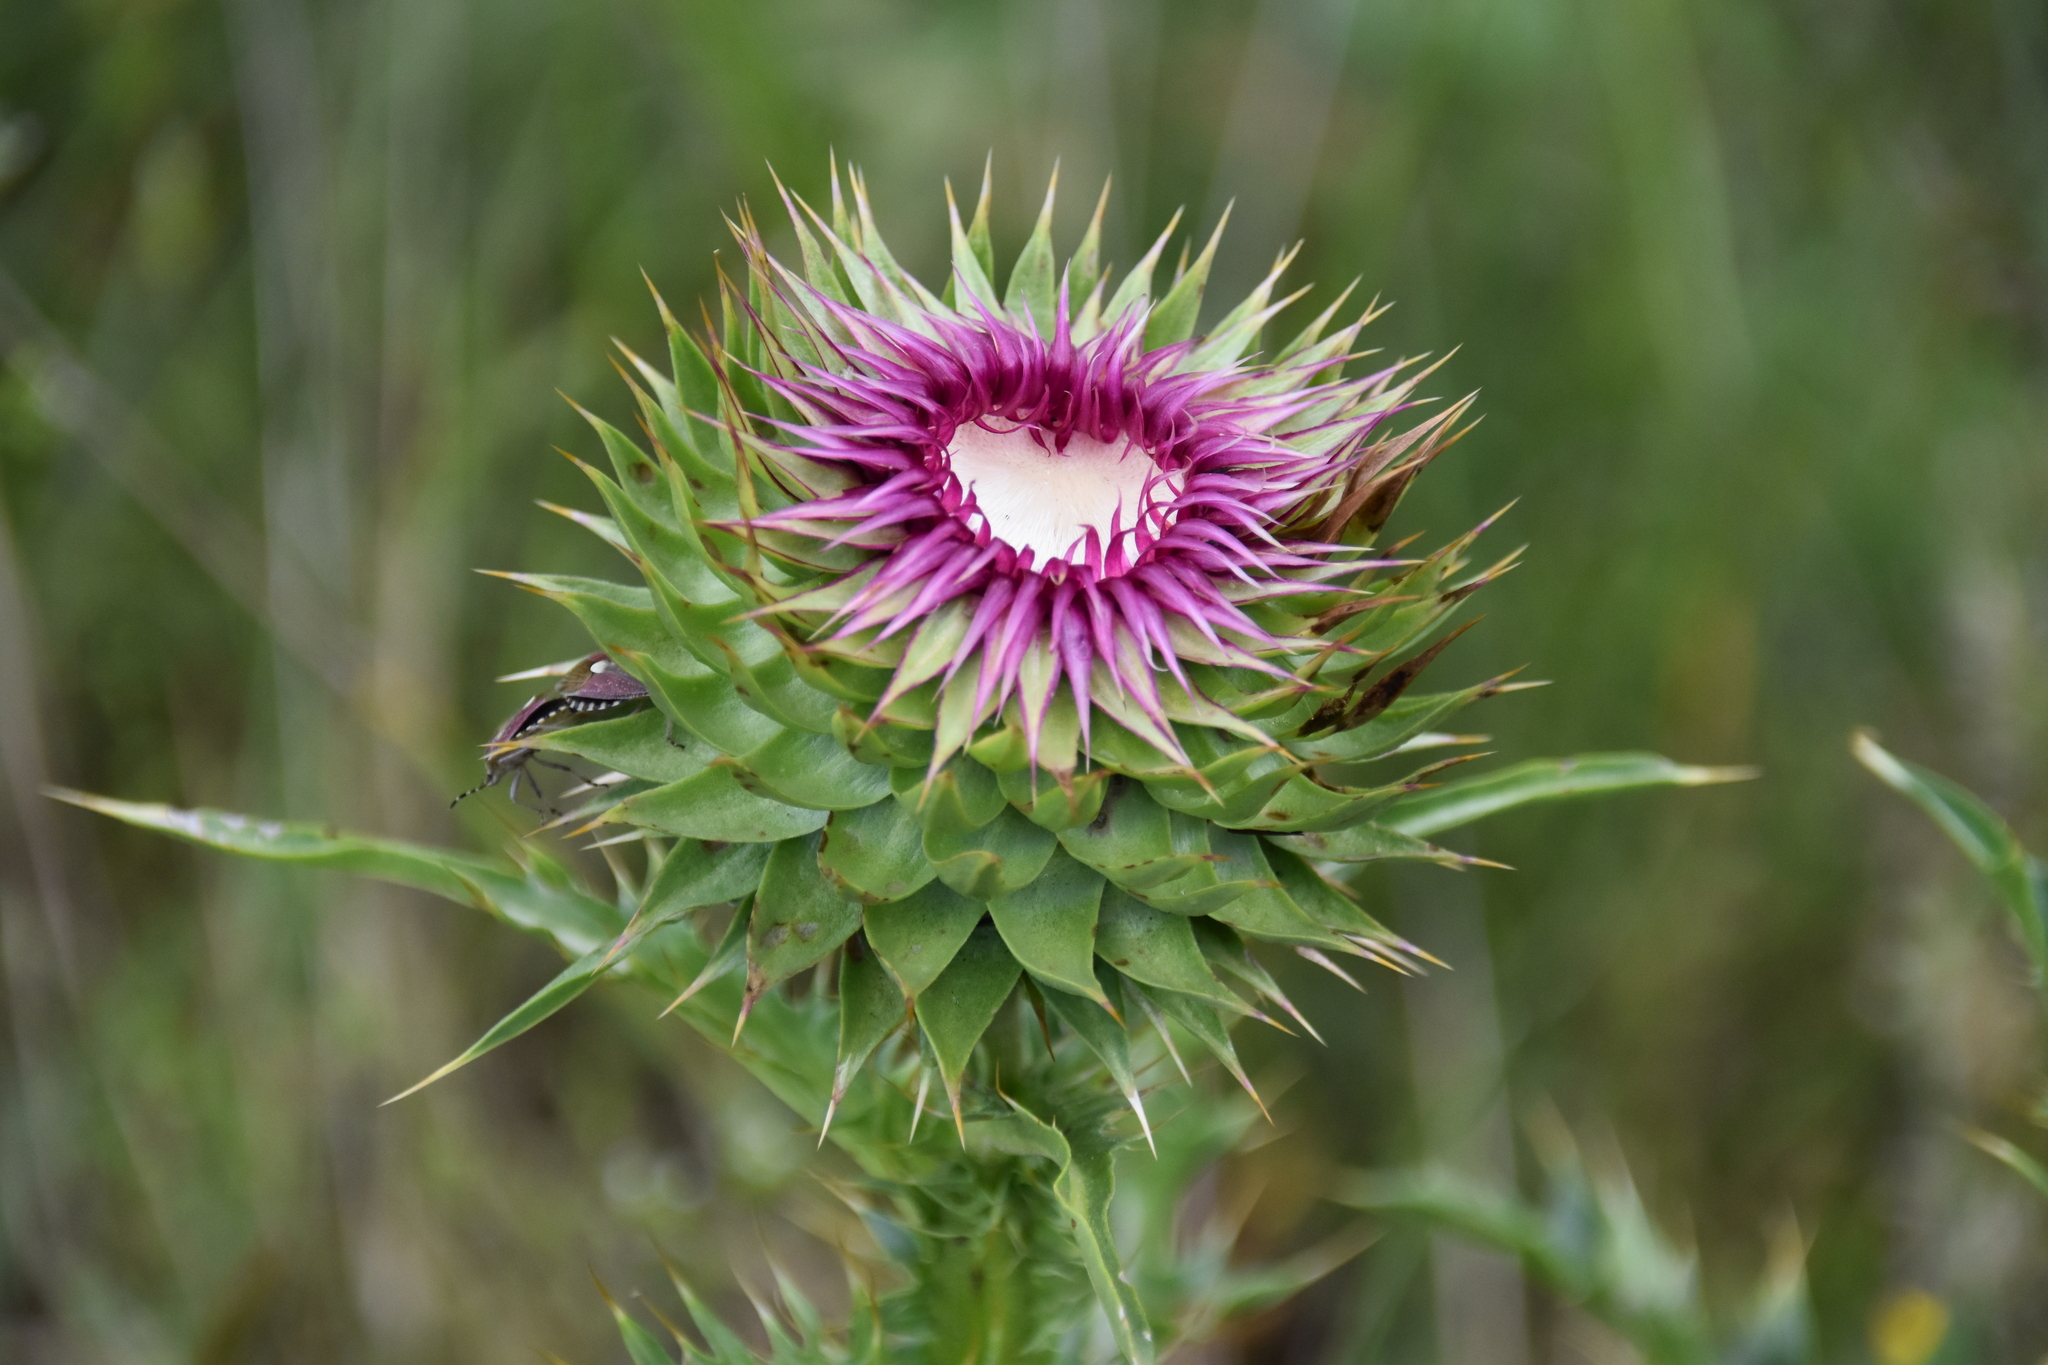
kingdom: Plantae
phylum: Tracheophyta
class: Magnoliopsida
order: Asterales
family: Asteraceae
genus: Carduus
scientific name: Carduus nutans
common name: Musk thistle
